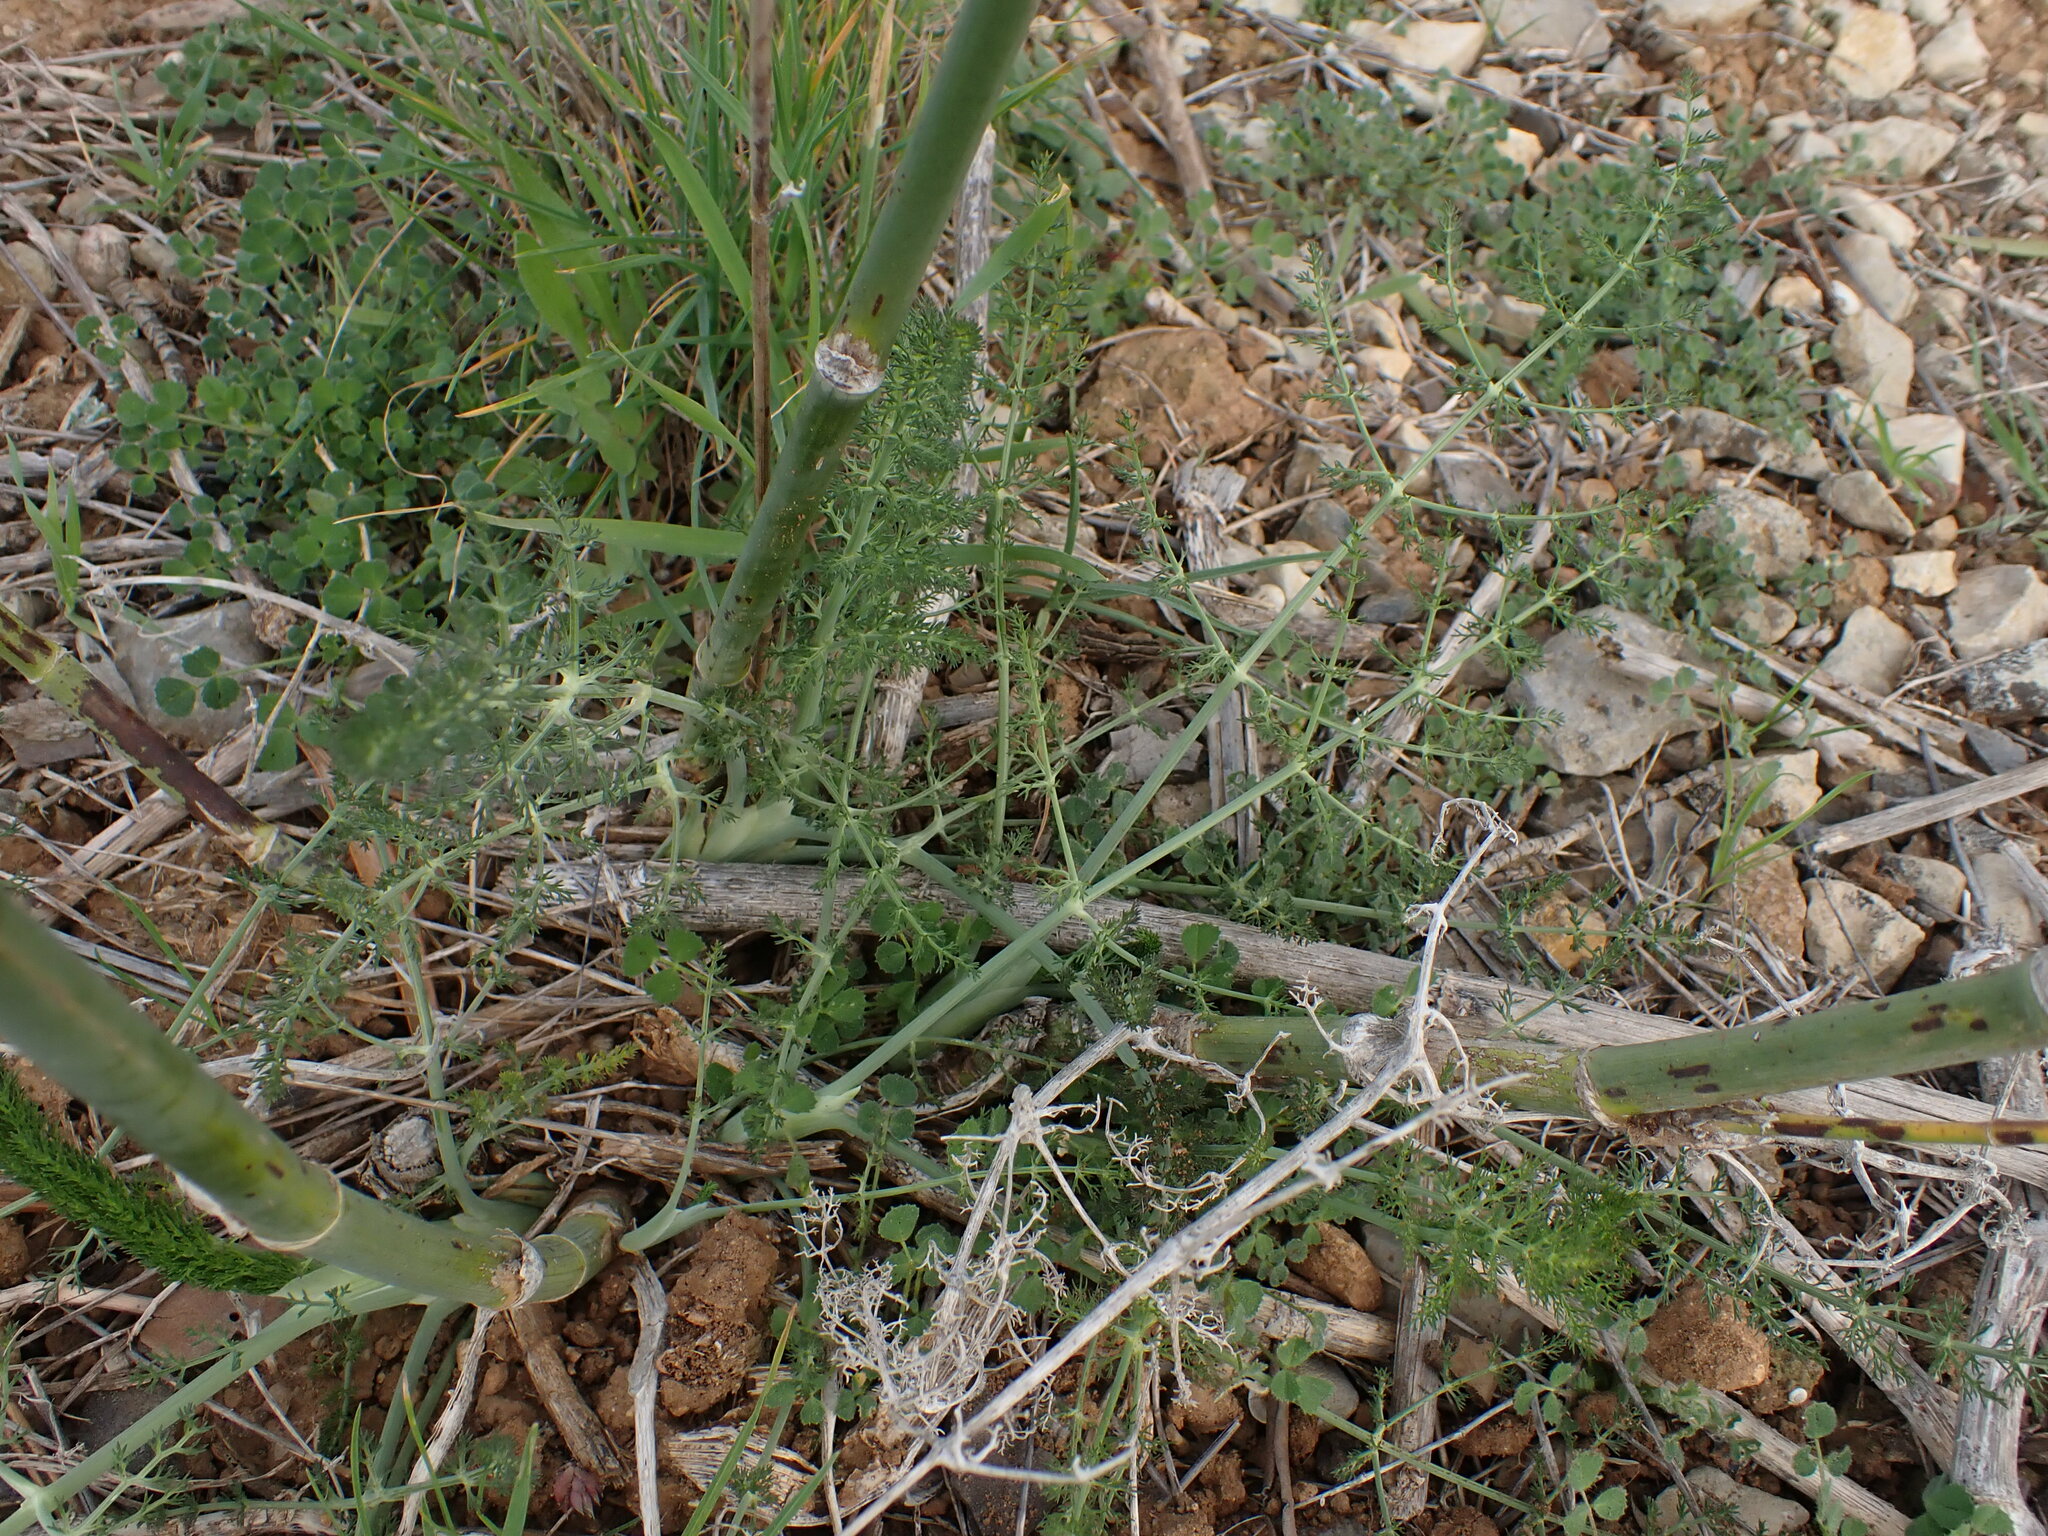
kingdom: Plantae
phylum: Tracheophyta
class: Magnoliopsida
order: Apiales
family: Apiaceae
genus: Foeniculum
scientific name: Foeniculum vulgare
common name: Fennel
